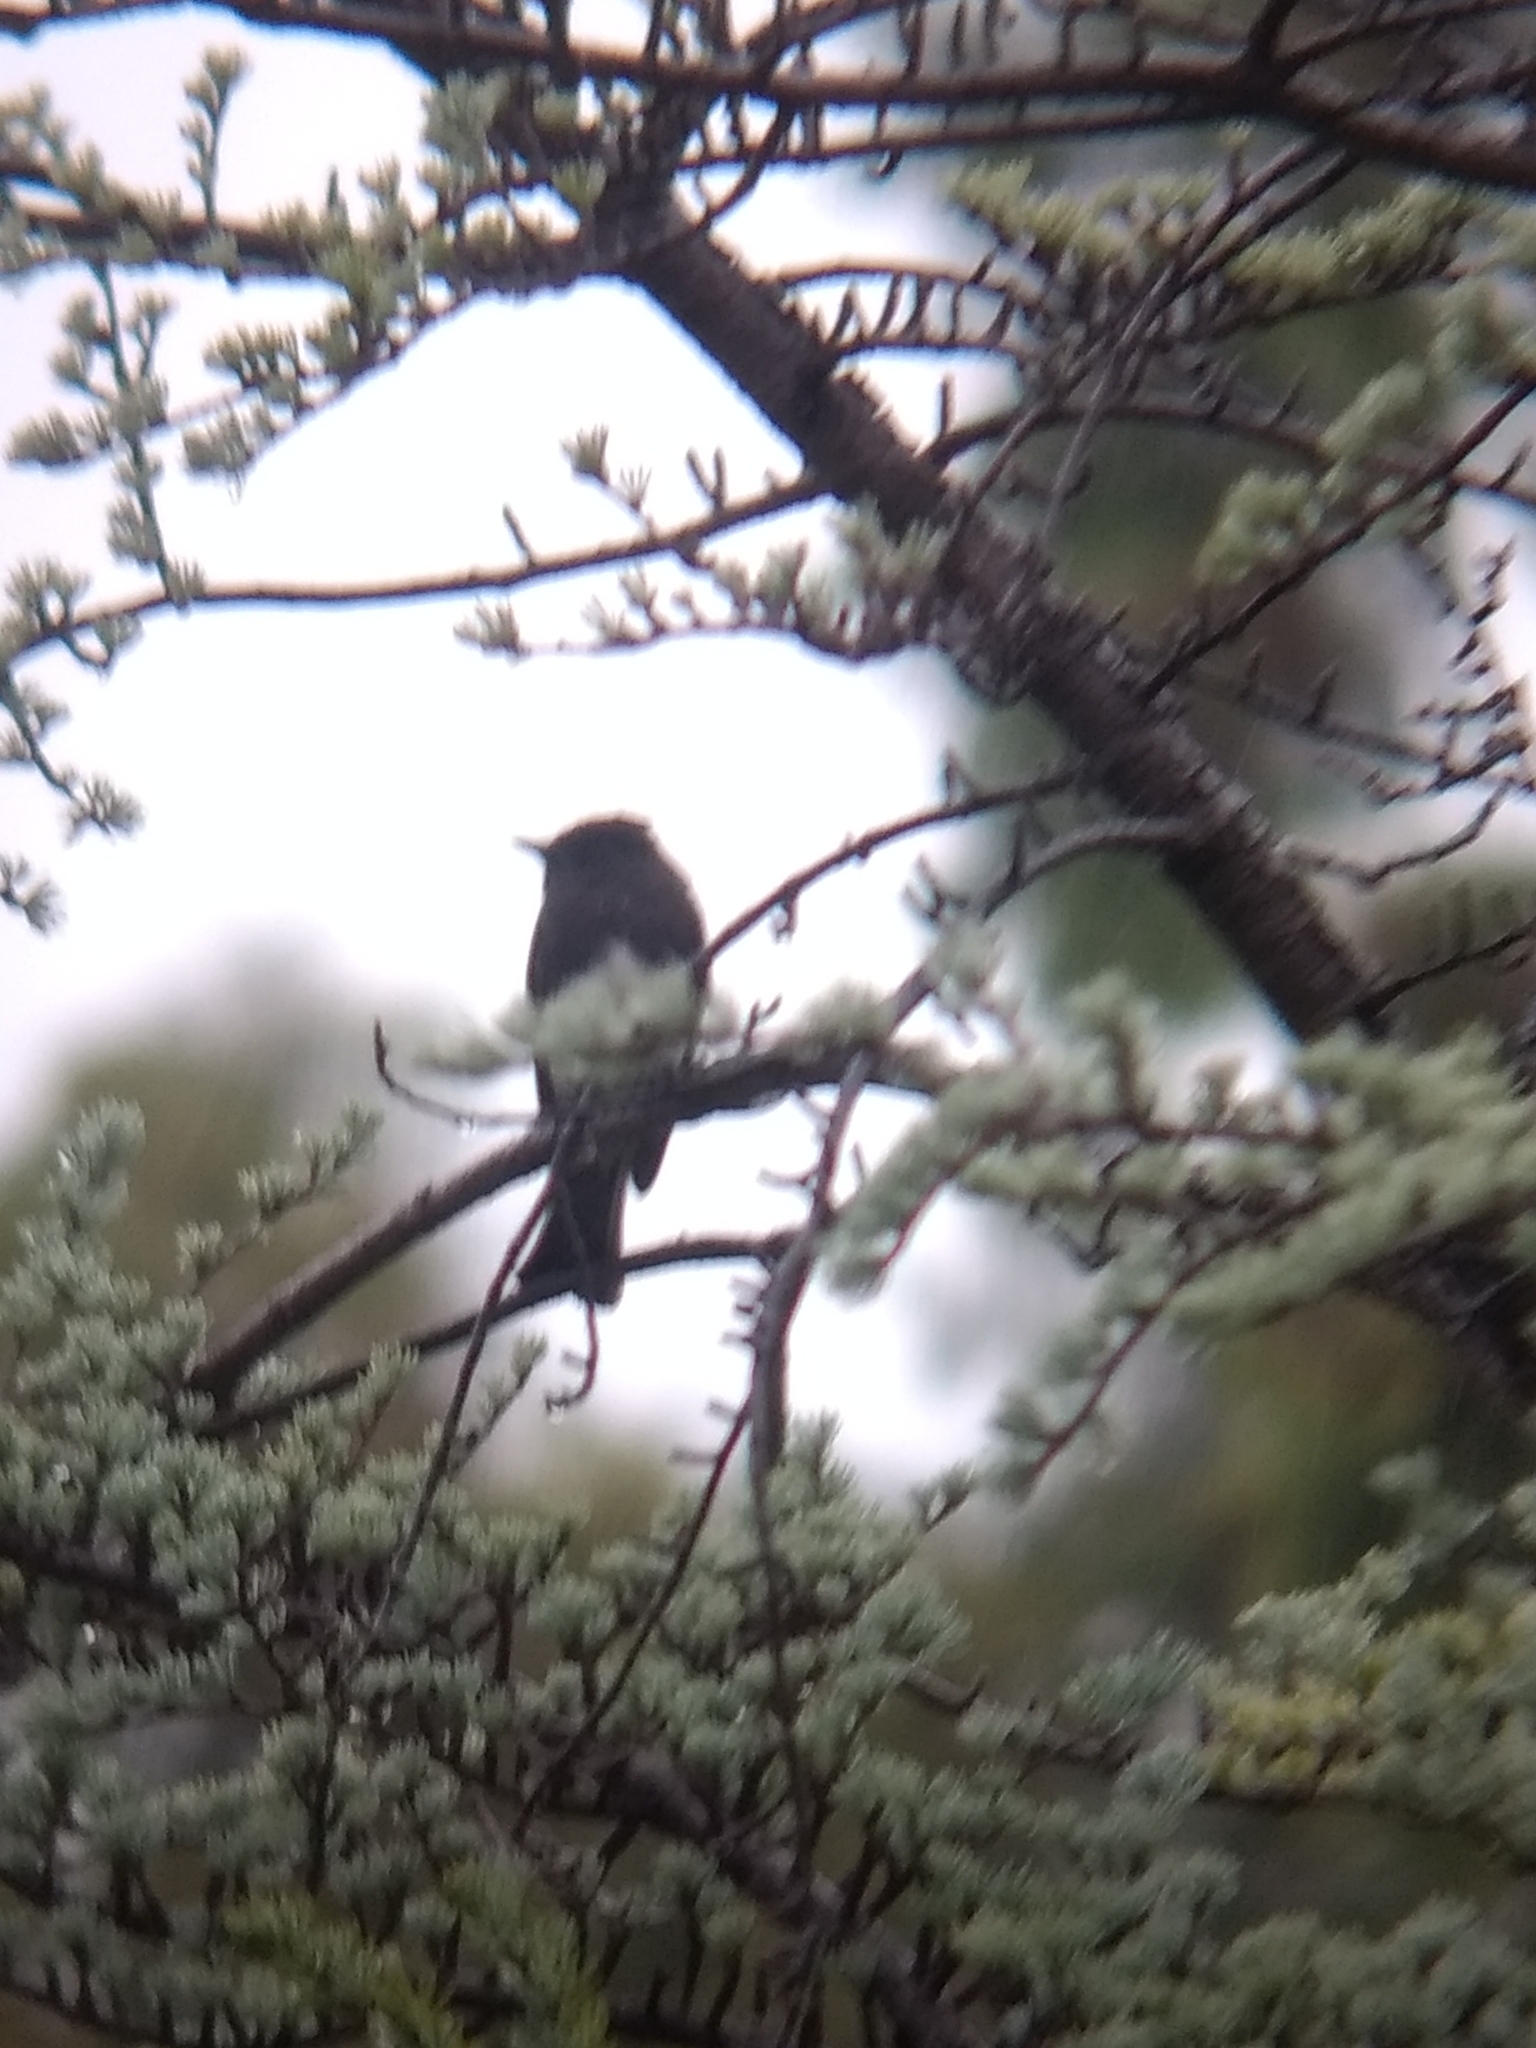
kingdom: Animalia
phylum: Chordata
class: Aves
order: Passeriformes
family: Tyrannidae
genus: Sayornis
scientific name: Sayornis nigricans
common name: Black phoebe
